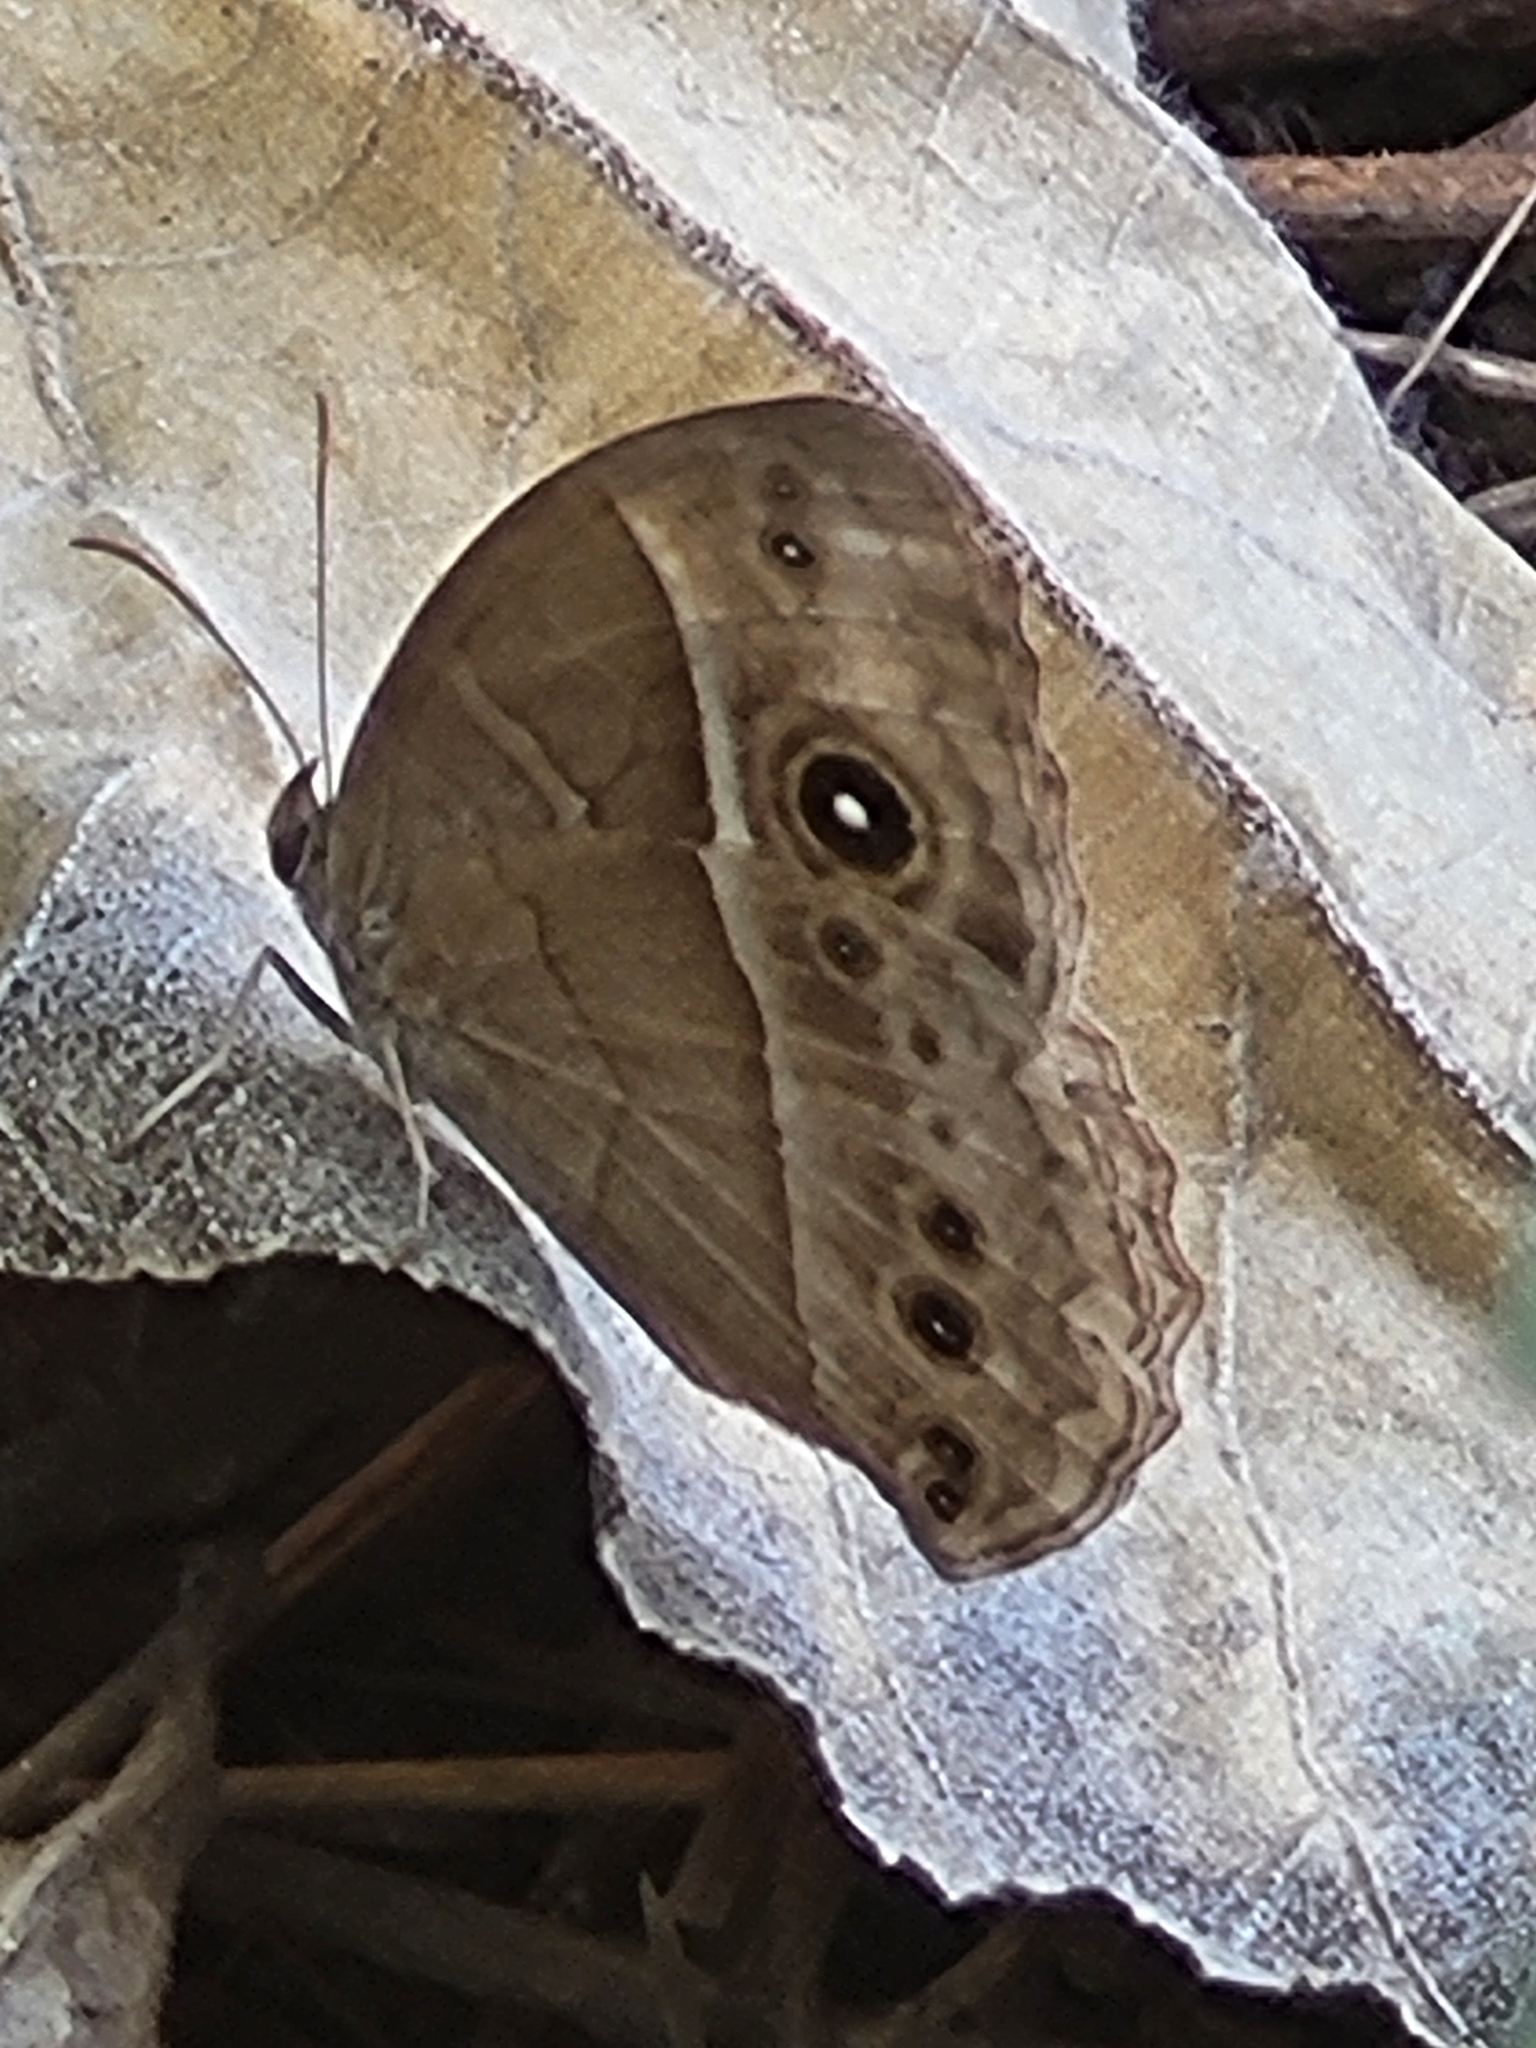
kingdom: Animalia
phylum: Arthropoda
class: Insecta
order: Lepidoptera
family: Nymphalidae
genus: Mycalesis
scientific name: Mycalesis rhacotis
